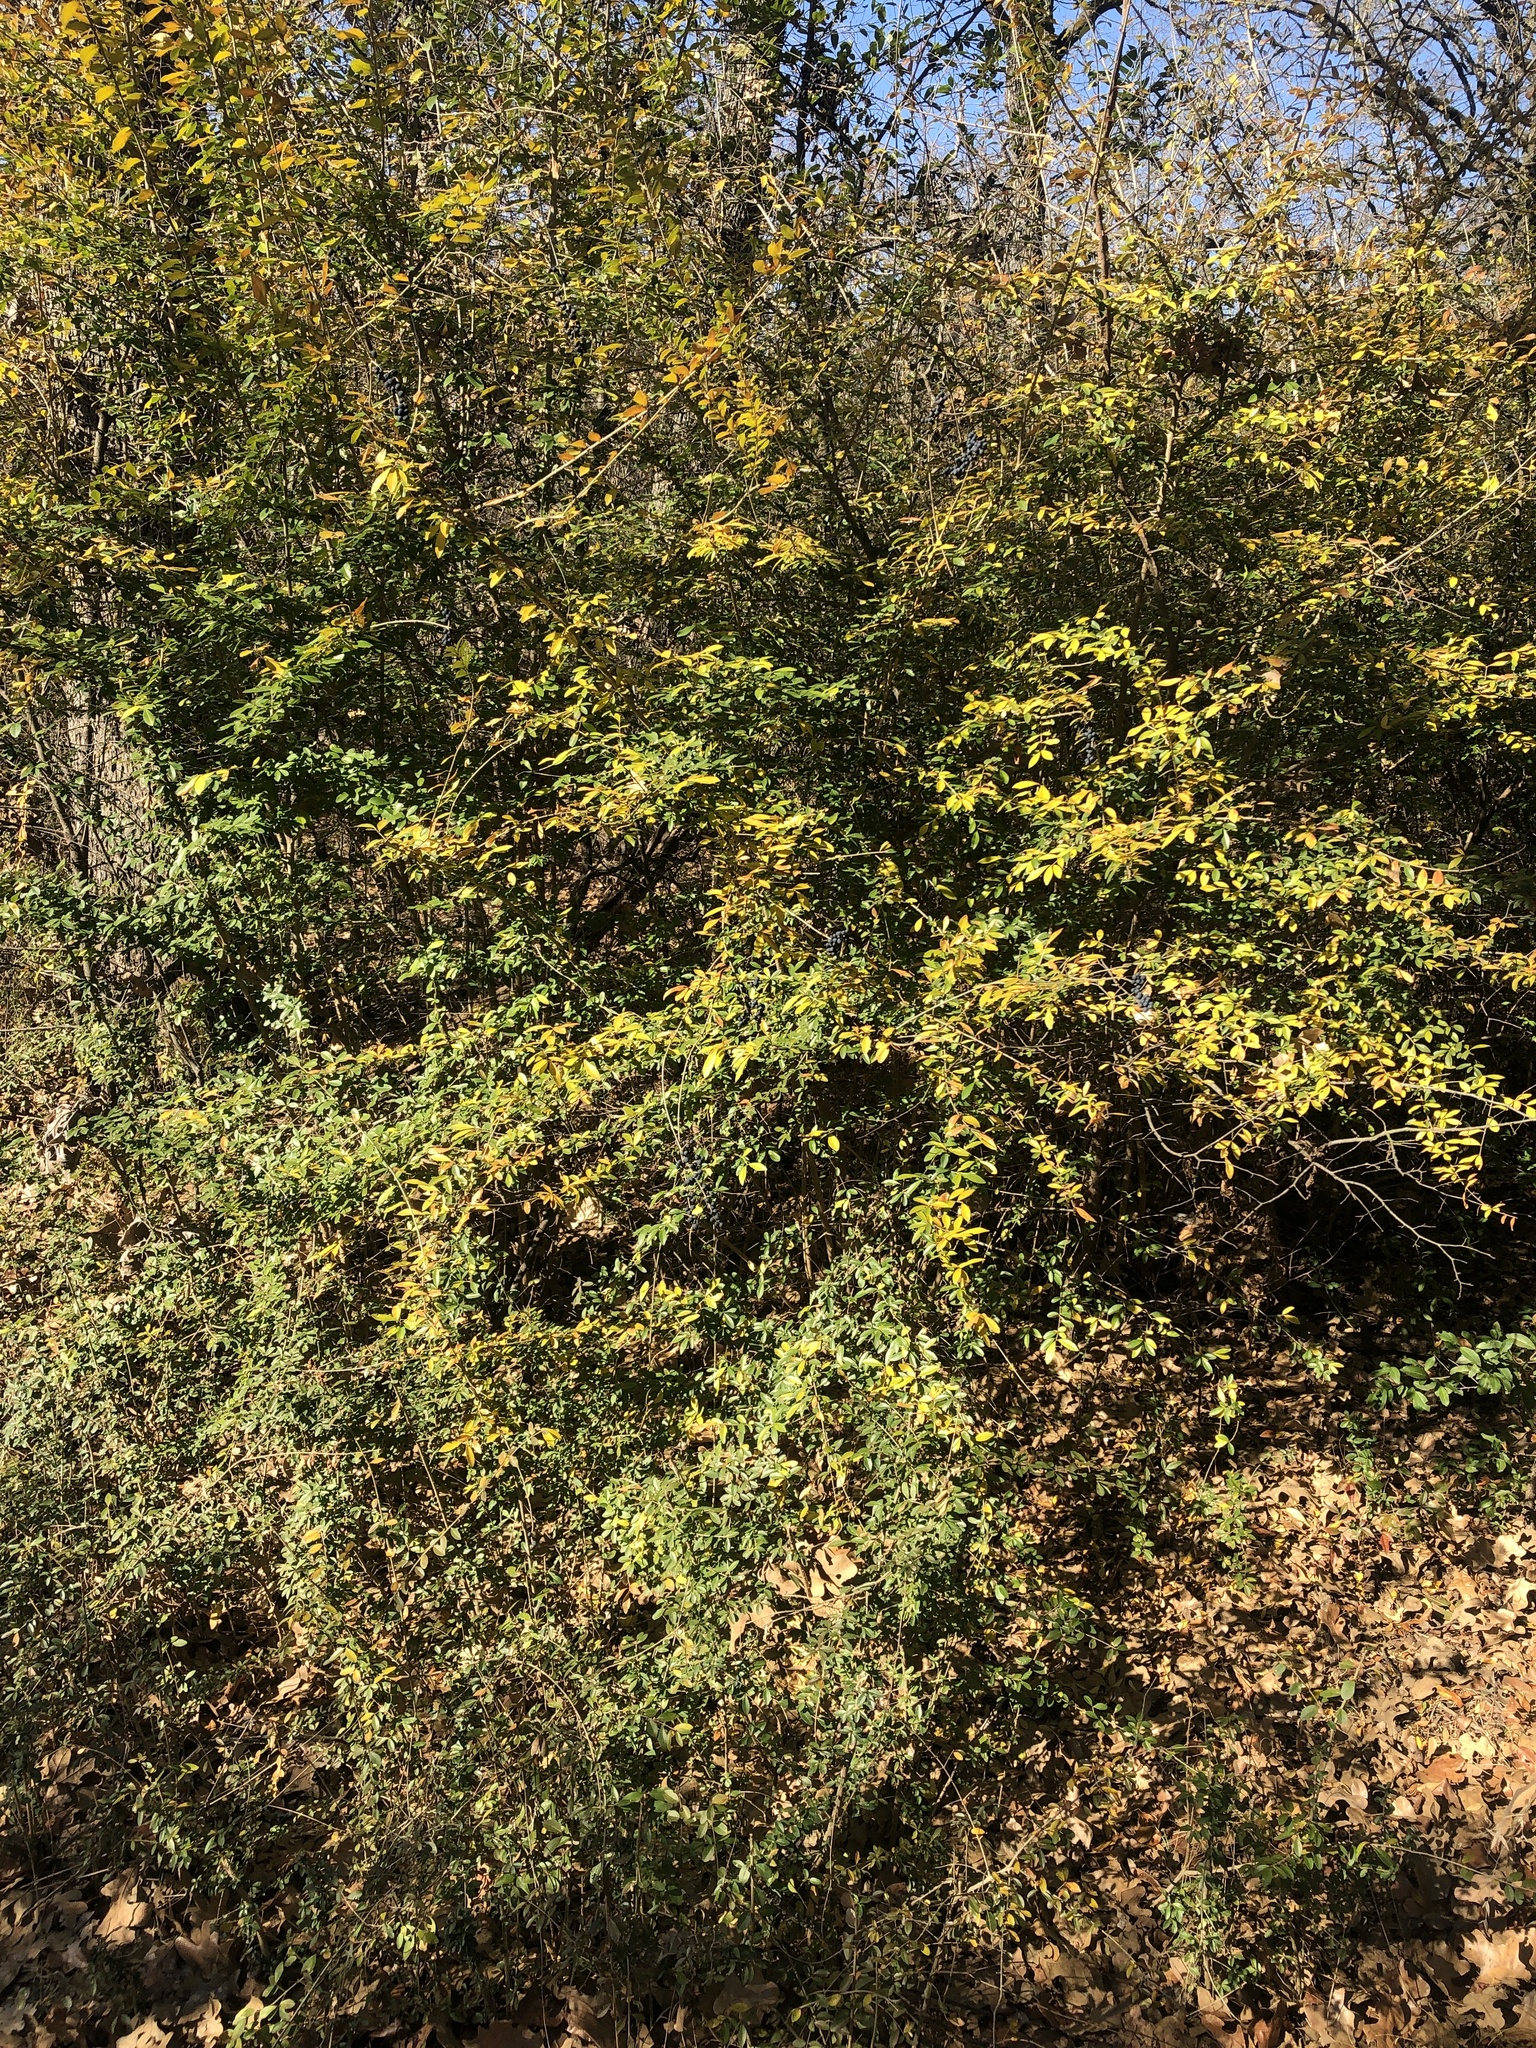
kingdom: Plantae
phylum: Tracheophyta
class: Magnoliopsida
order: Lamiales
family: Oleaceae
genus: Ligustrum
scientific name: Ligustrum quihoui
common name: Waxyleaf privet
